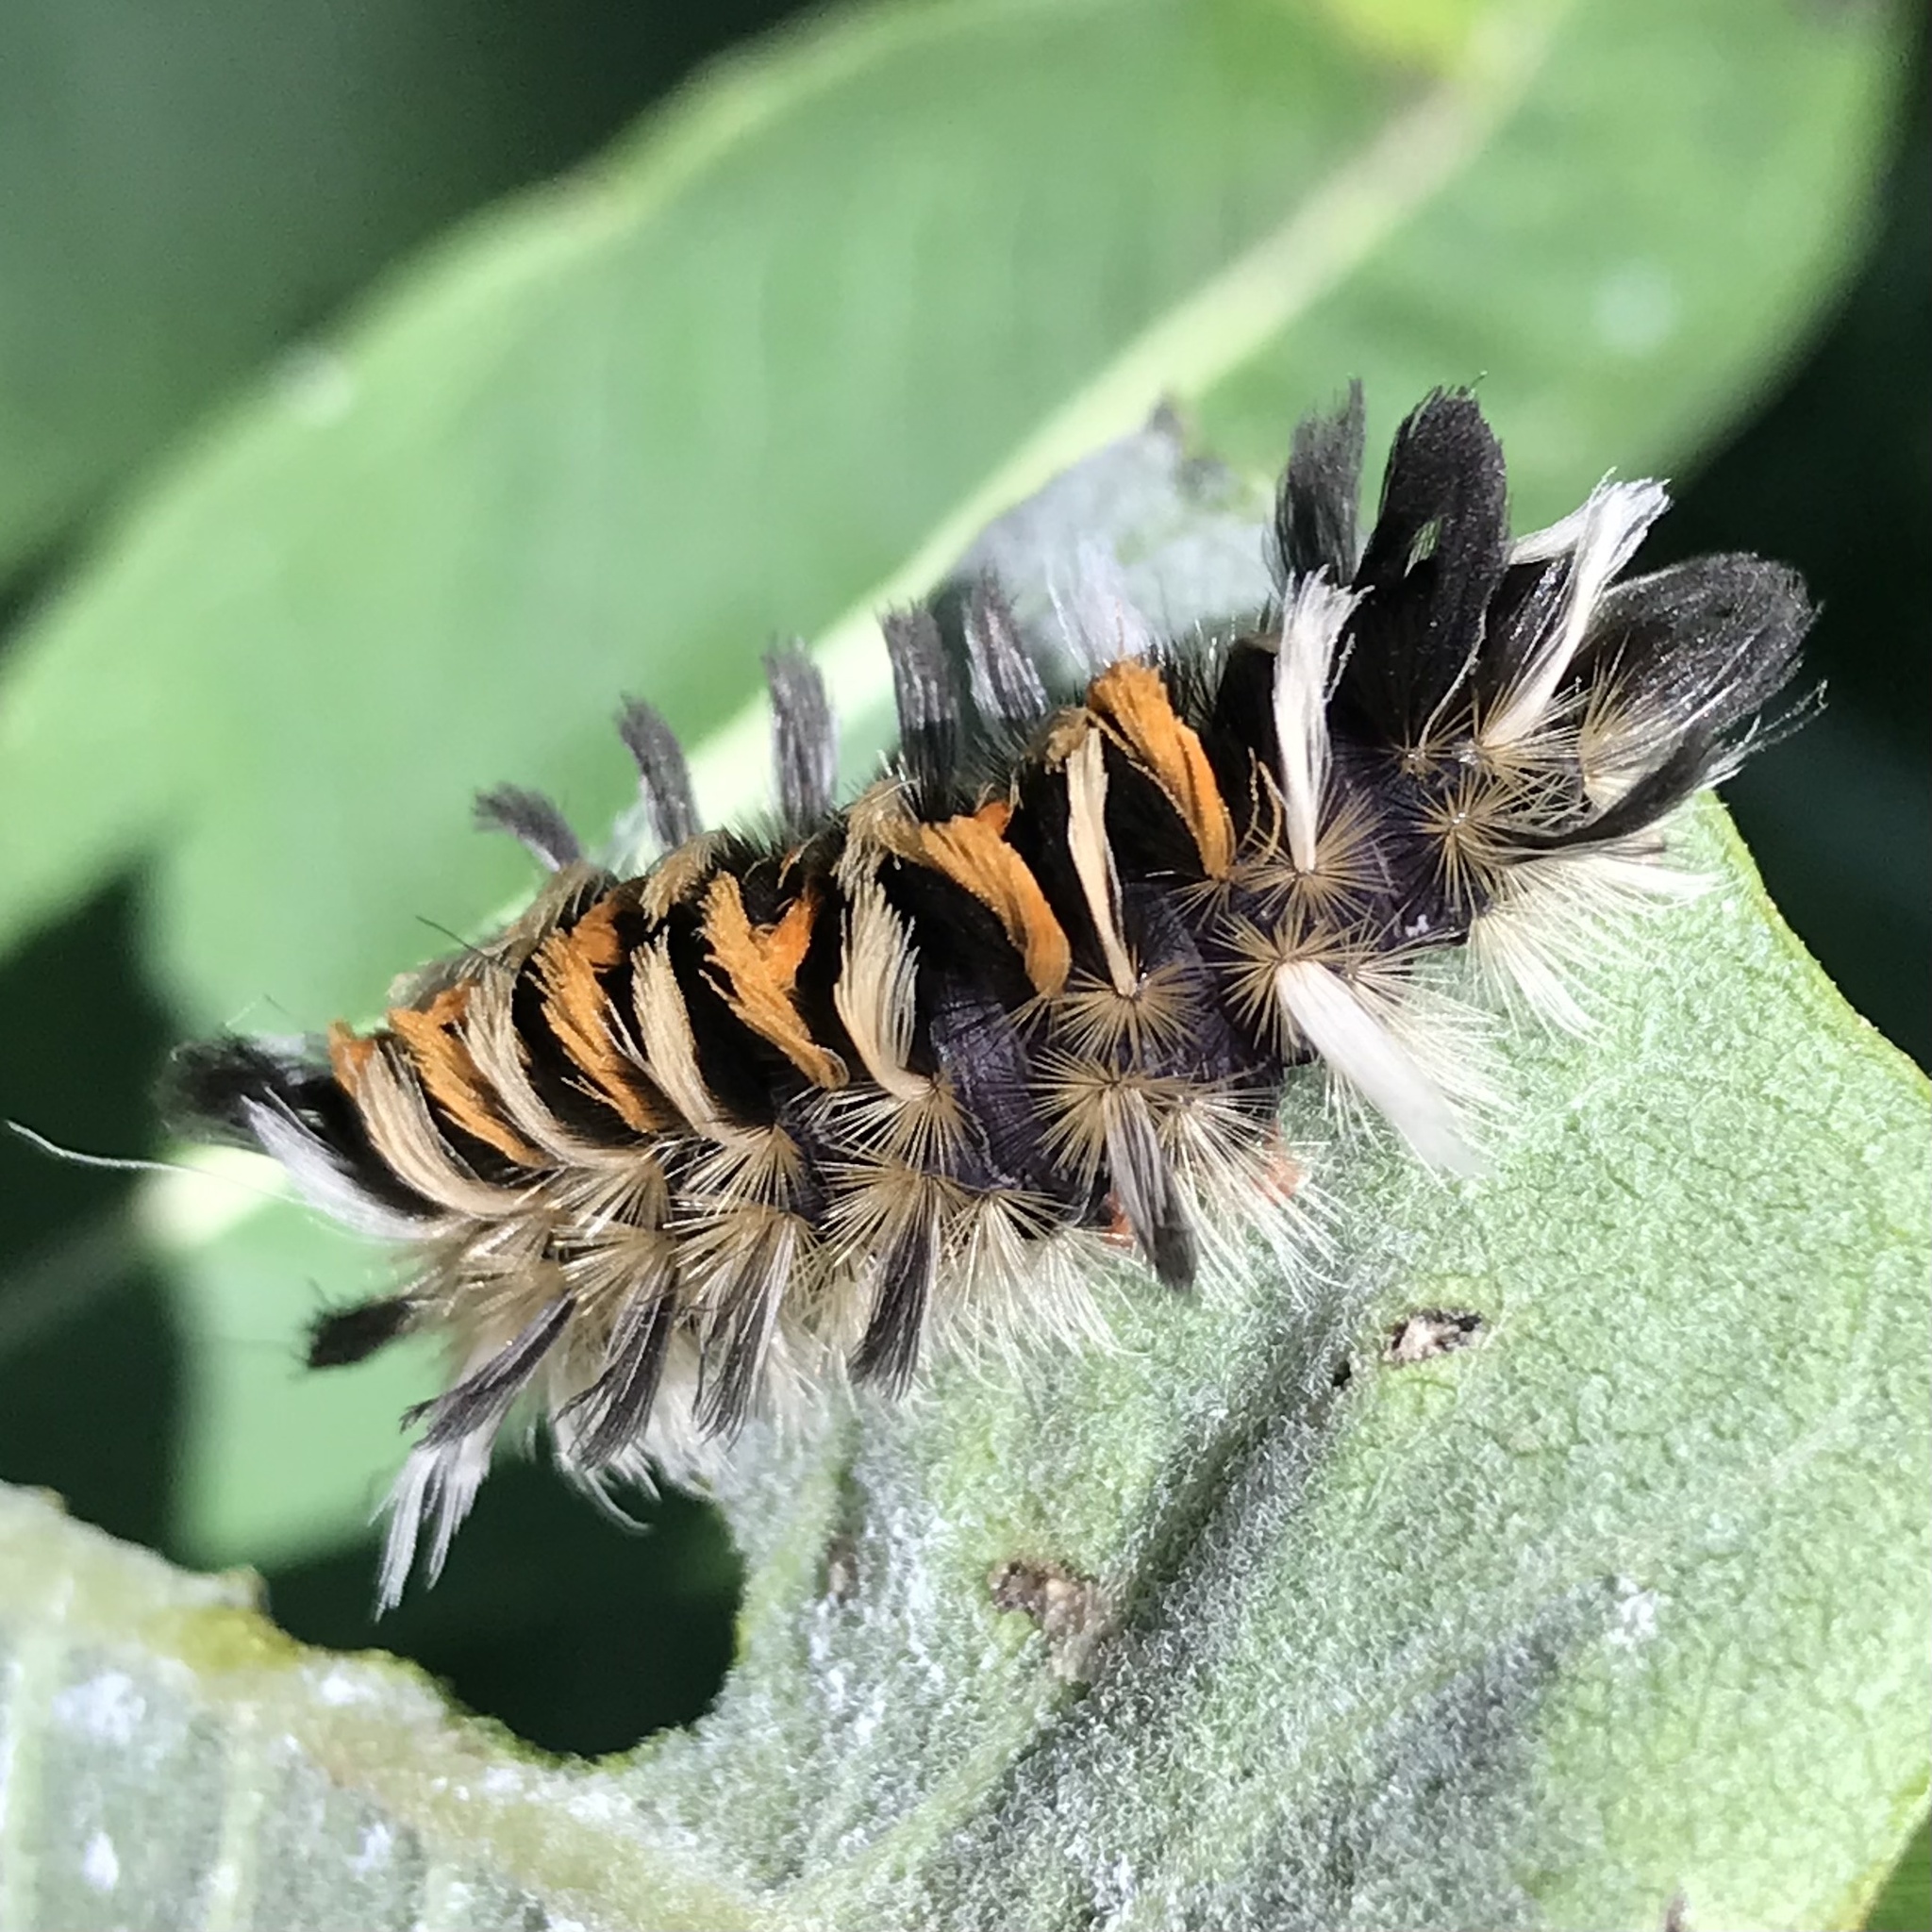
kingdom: Animalia
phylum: Arthropoda
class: Insecta
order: Lepidoptera
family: Erebidae
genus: Euchaetes
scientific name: Euchaetes egle
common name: Milkweed tussock moth
